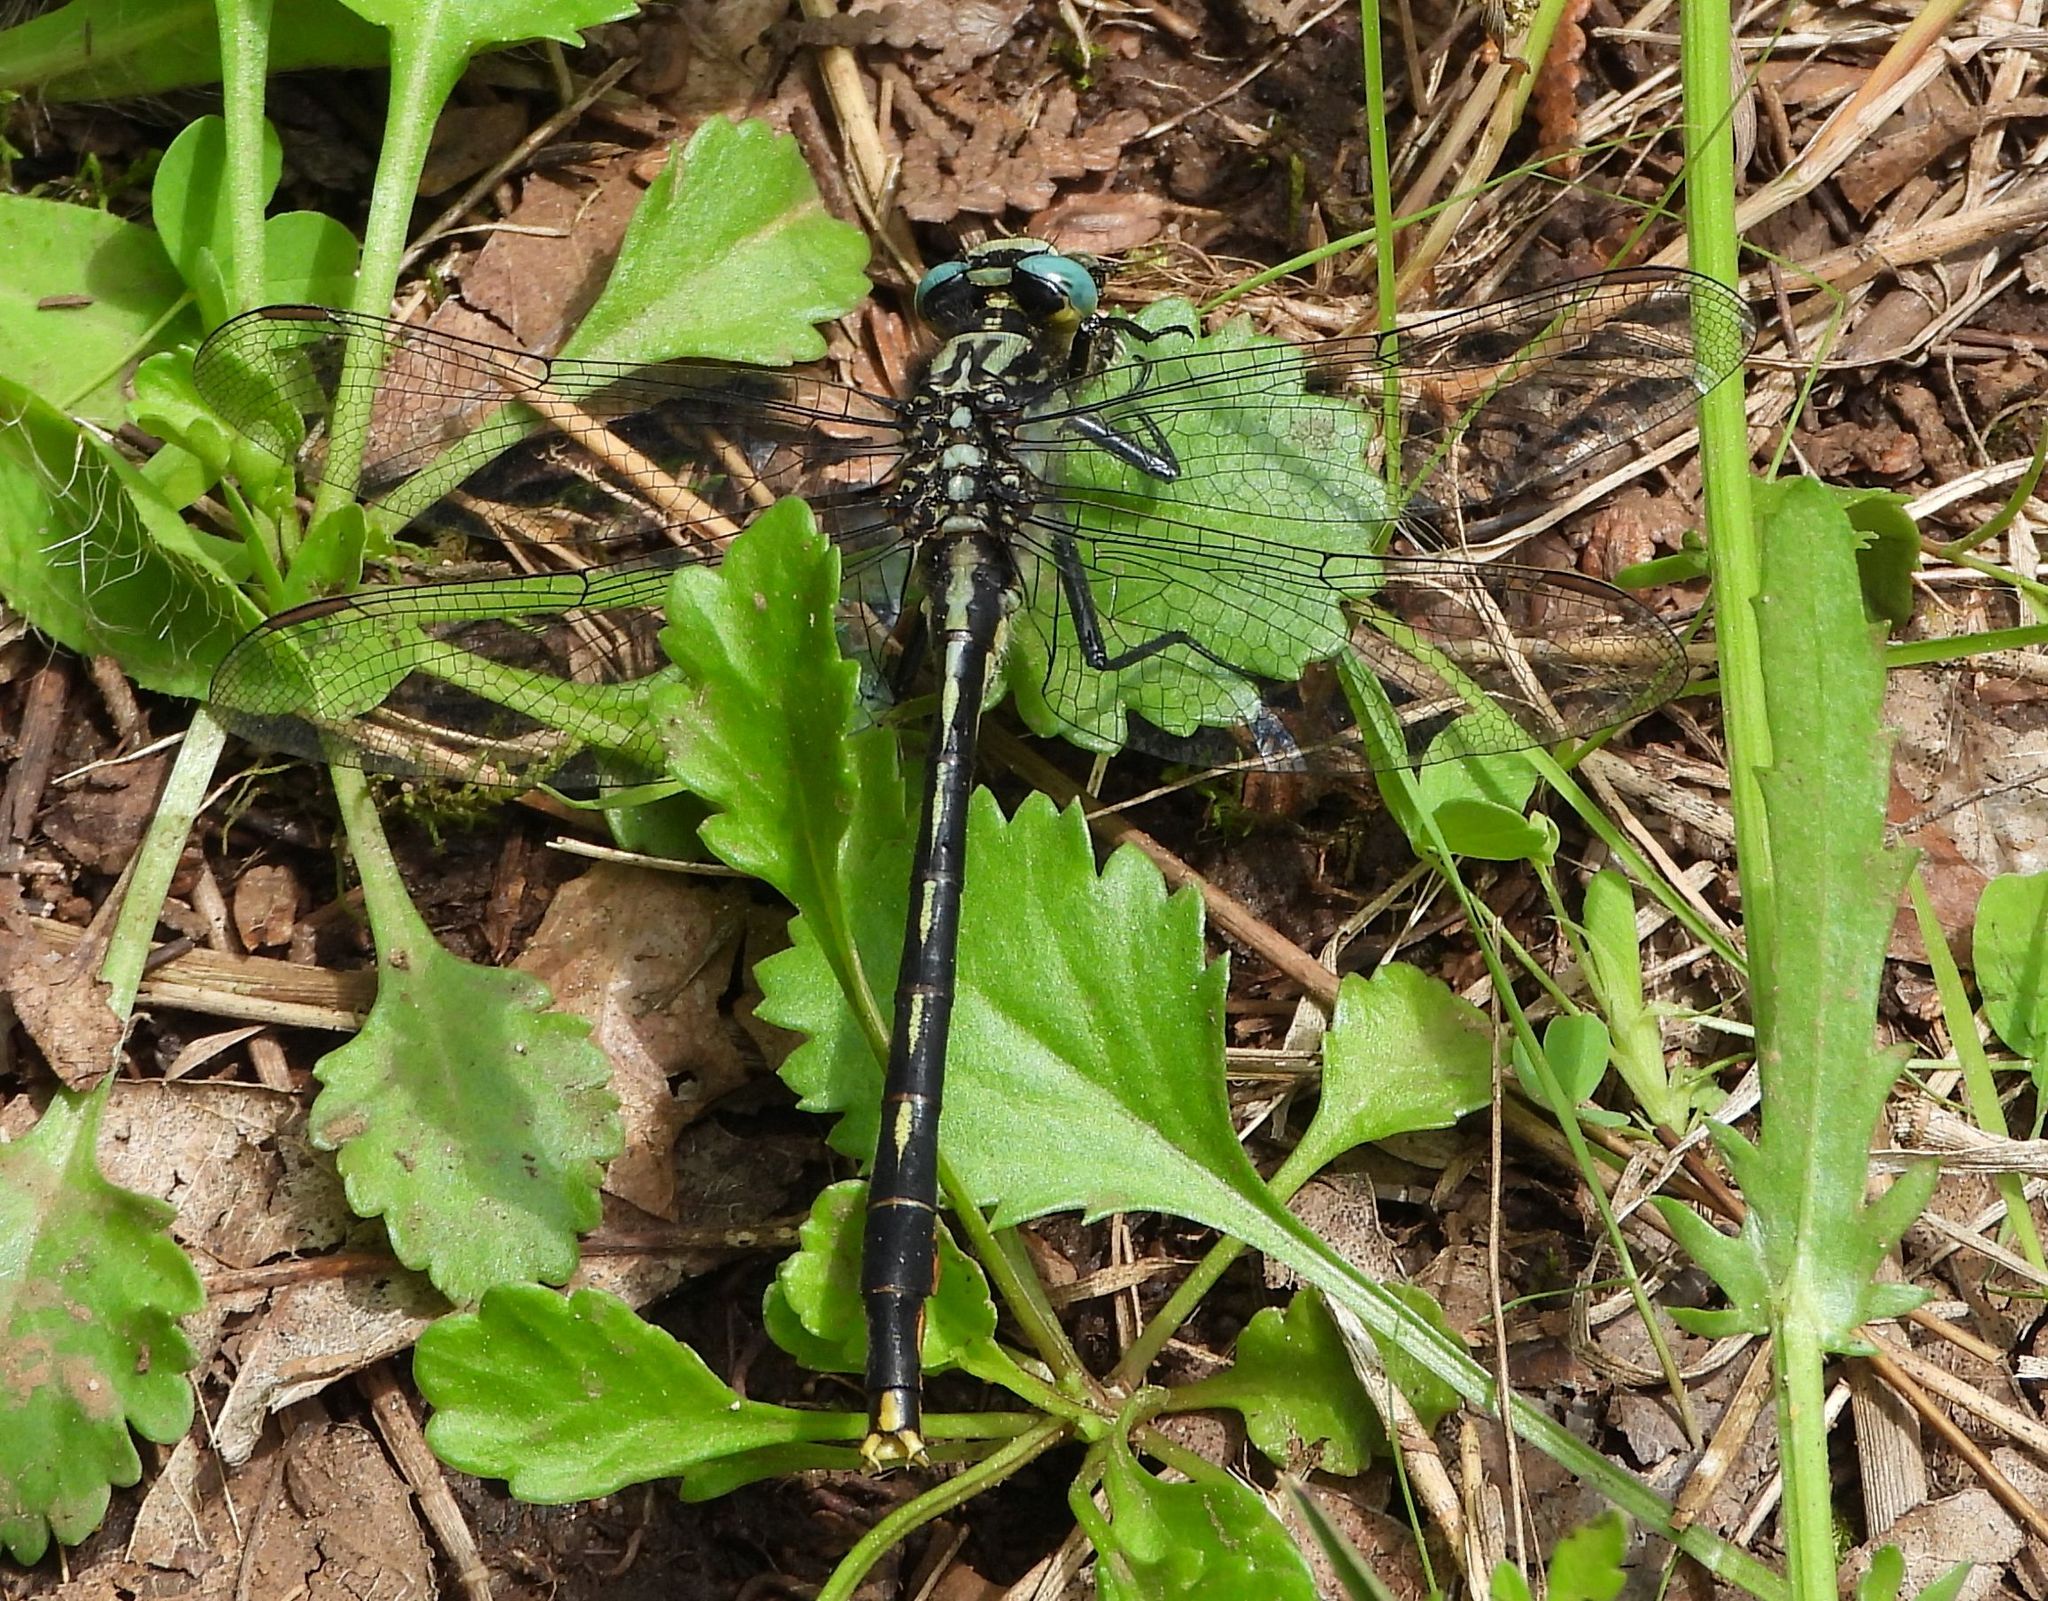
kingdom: Animalia
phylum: Arthropoda
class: Insecta
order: Odonata
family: Gomphidae
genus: Arigomphus
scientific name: Arigomphus furcifer
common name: Lilypad clubtail
